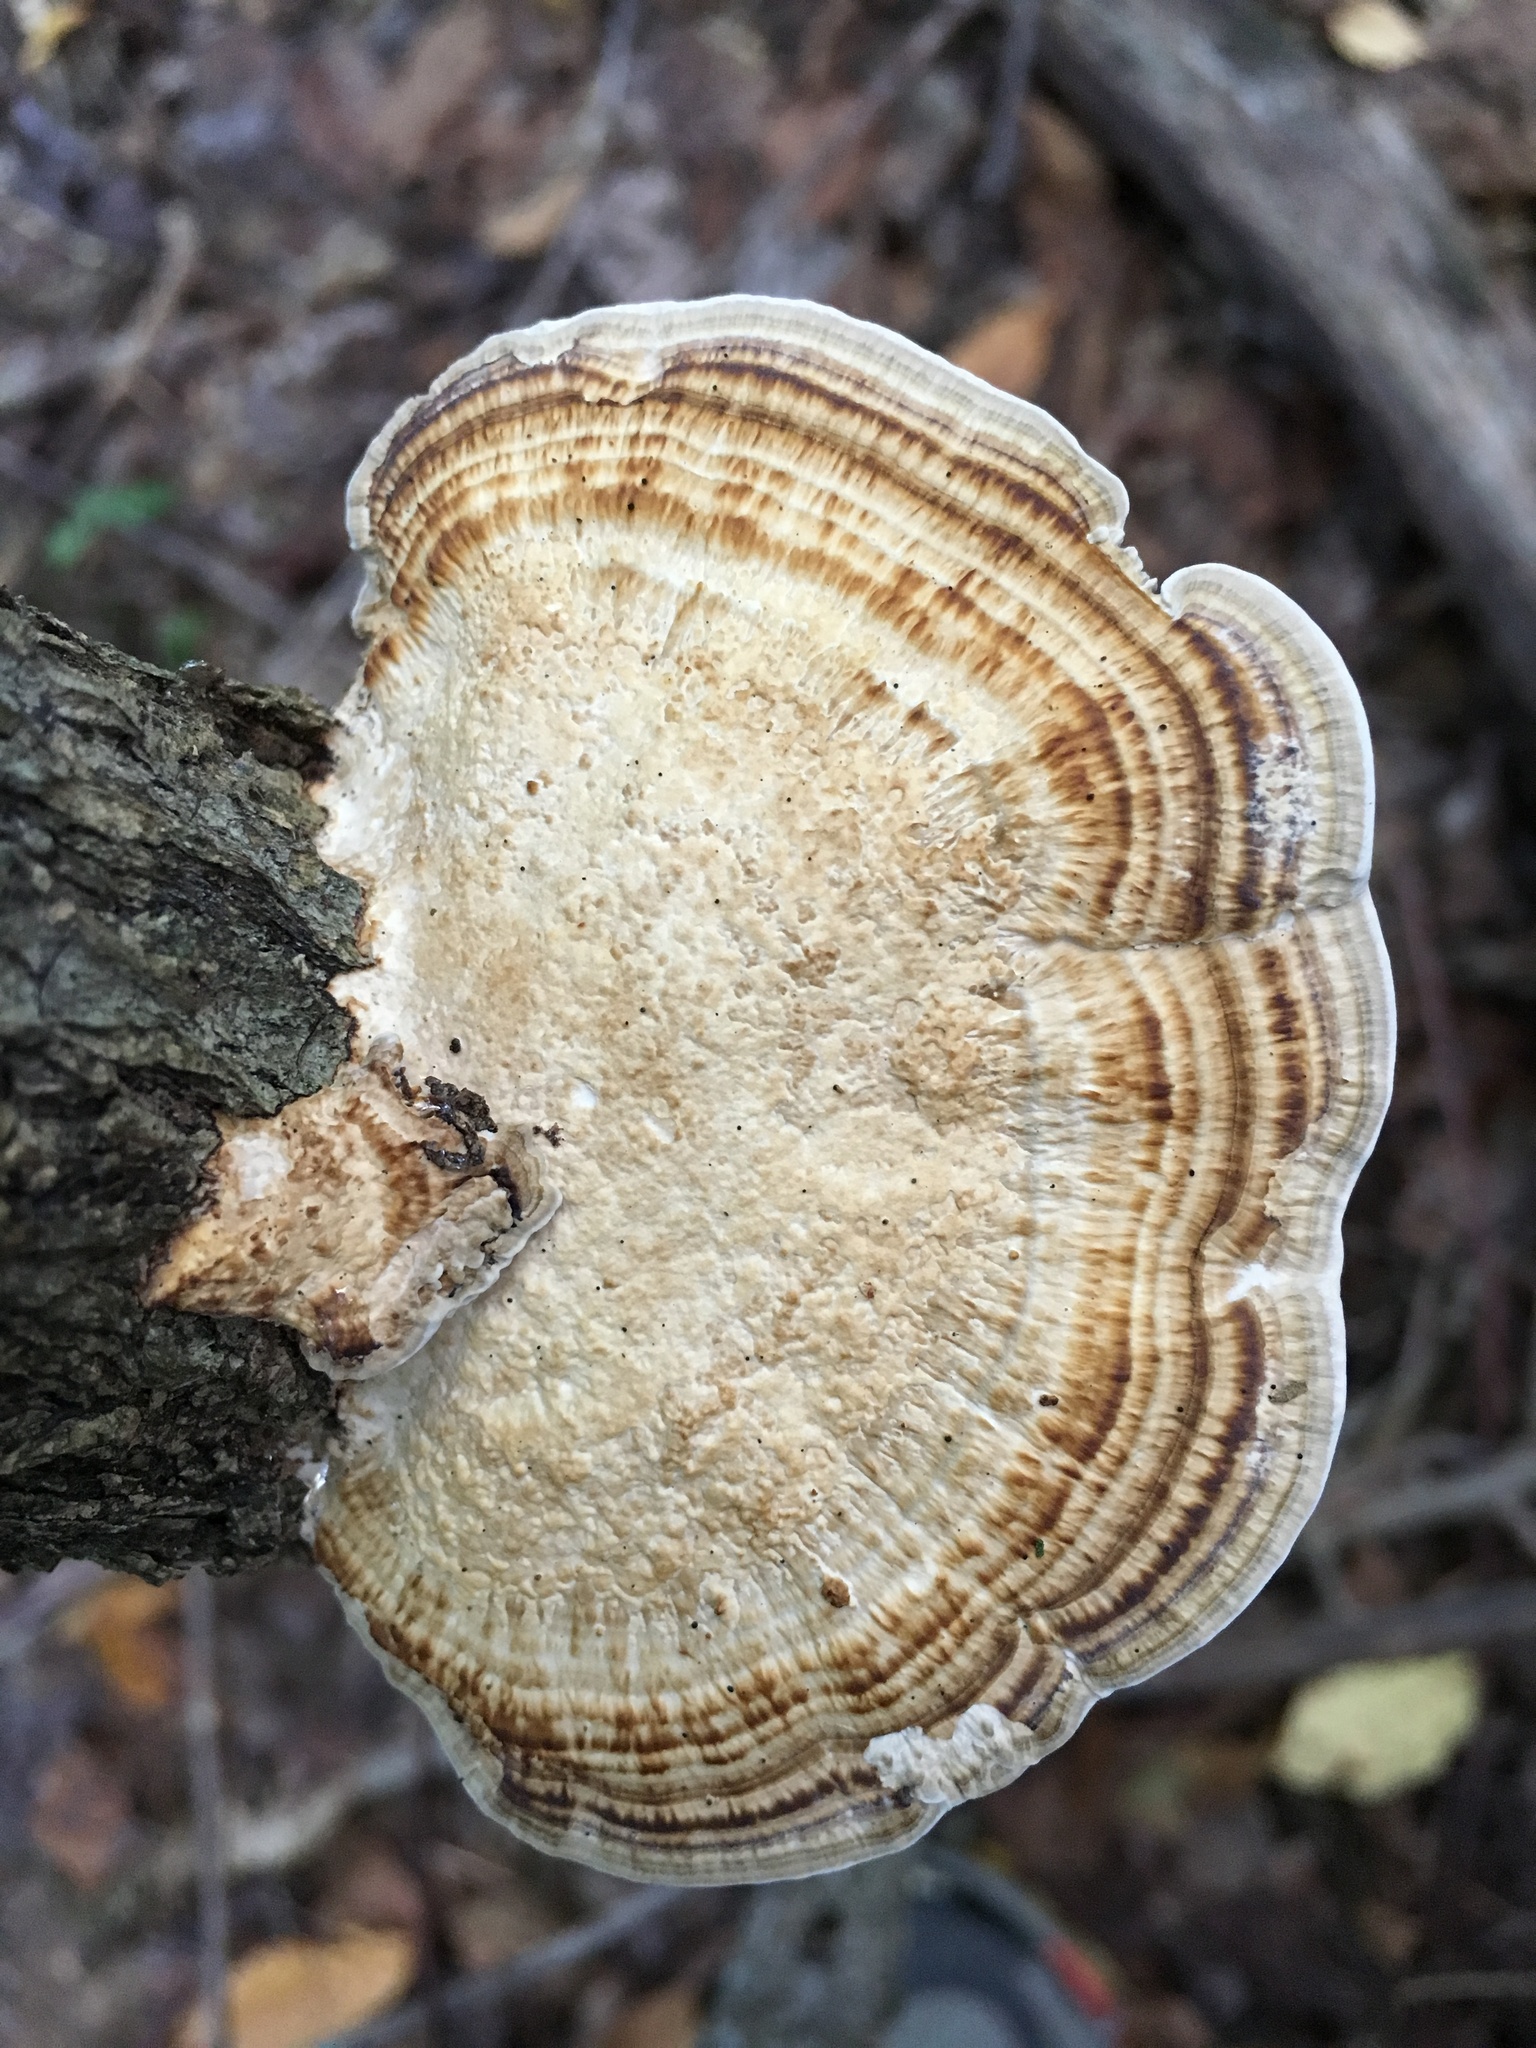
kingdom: Fungi
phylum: Basidiomycota
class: Agaricomycetes
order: Polyporales
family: Polyporaceae
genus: Daedaleopsis
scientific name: Daedaleopsis confragosa
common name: Blushing bracket
